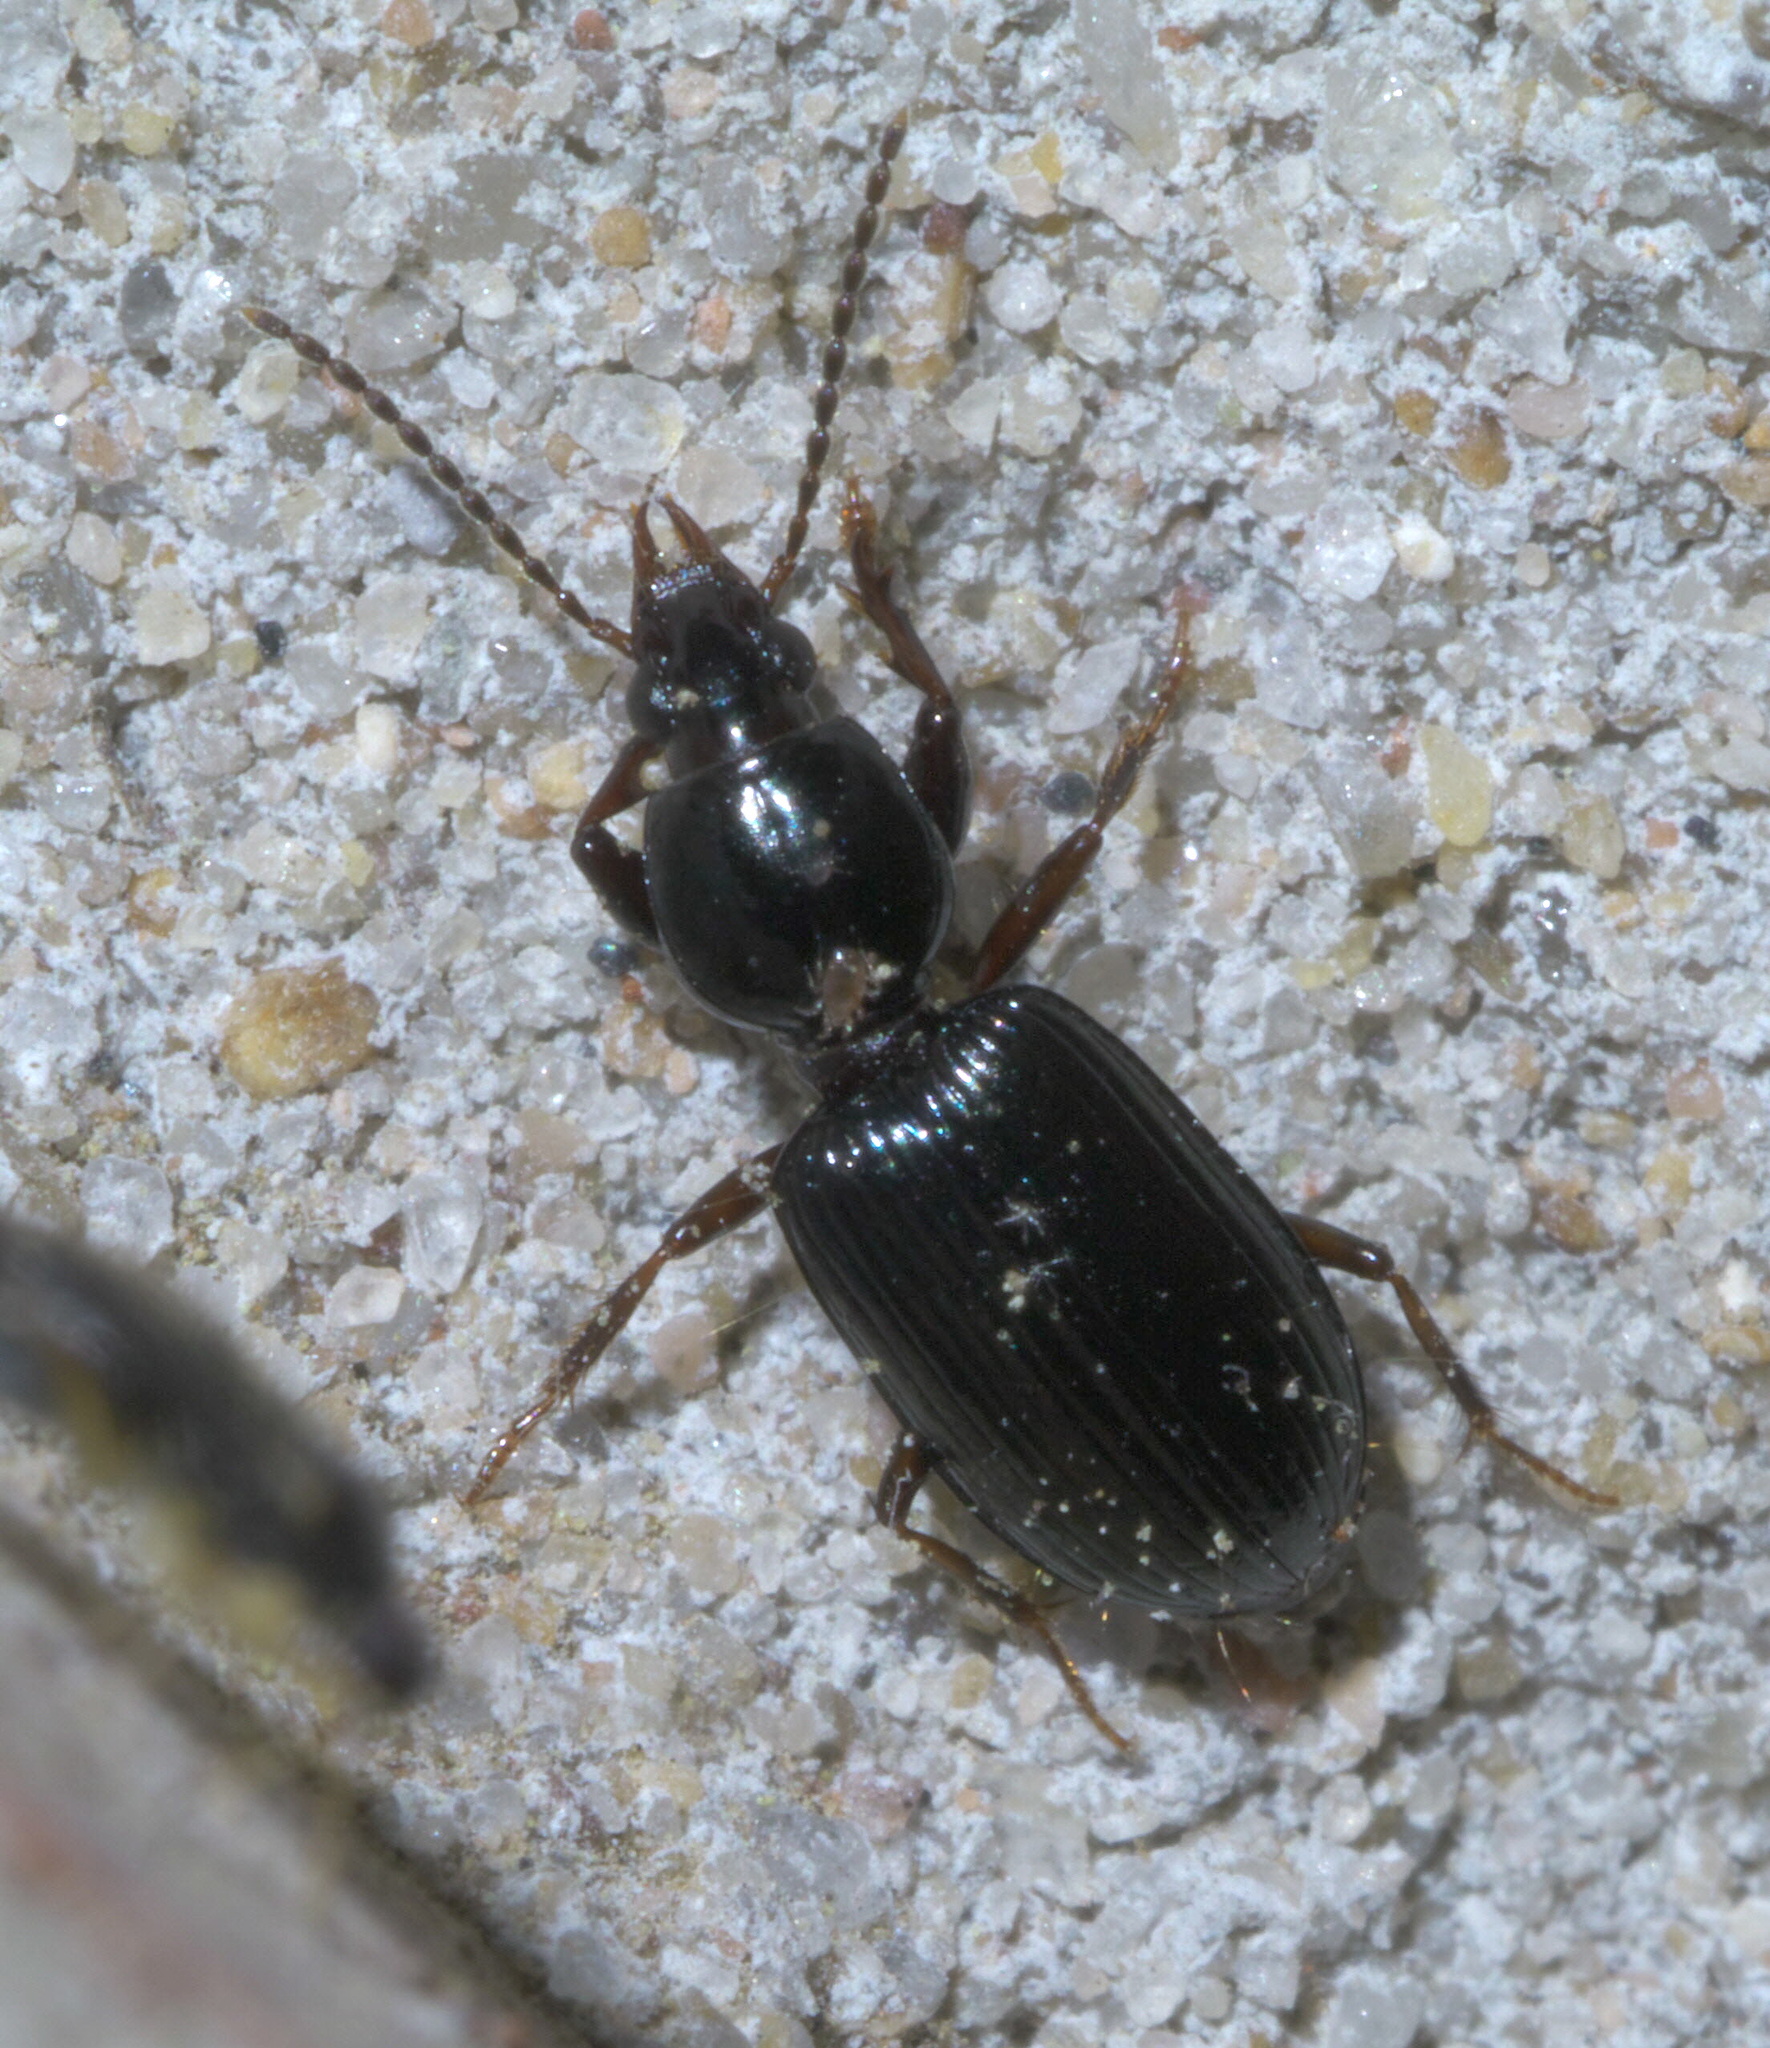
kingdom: Animalia
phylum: Arthropoda
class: Insecta
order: Coleoptera
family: Carabidae
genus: Ardistomis
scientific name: Ardistomis schaumii
